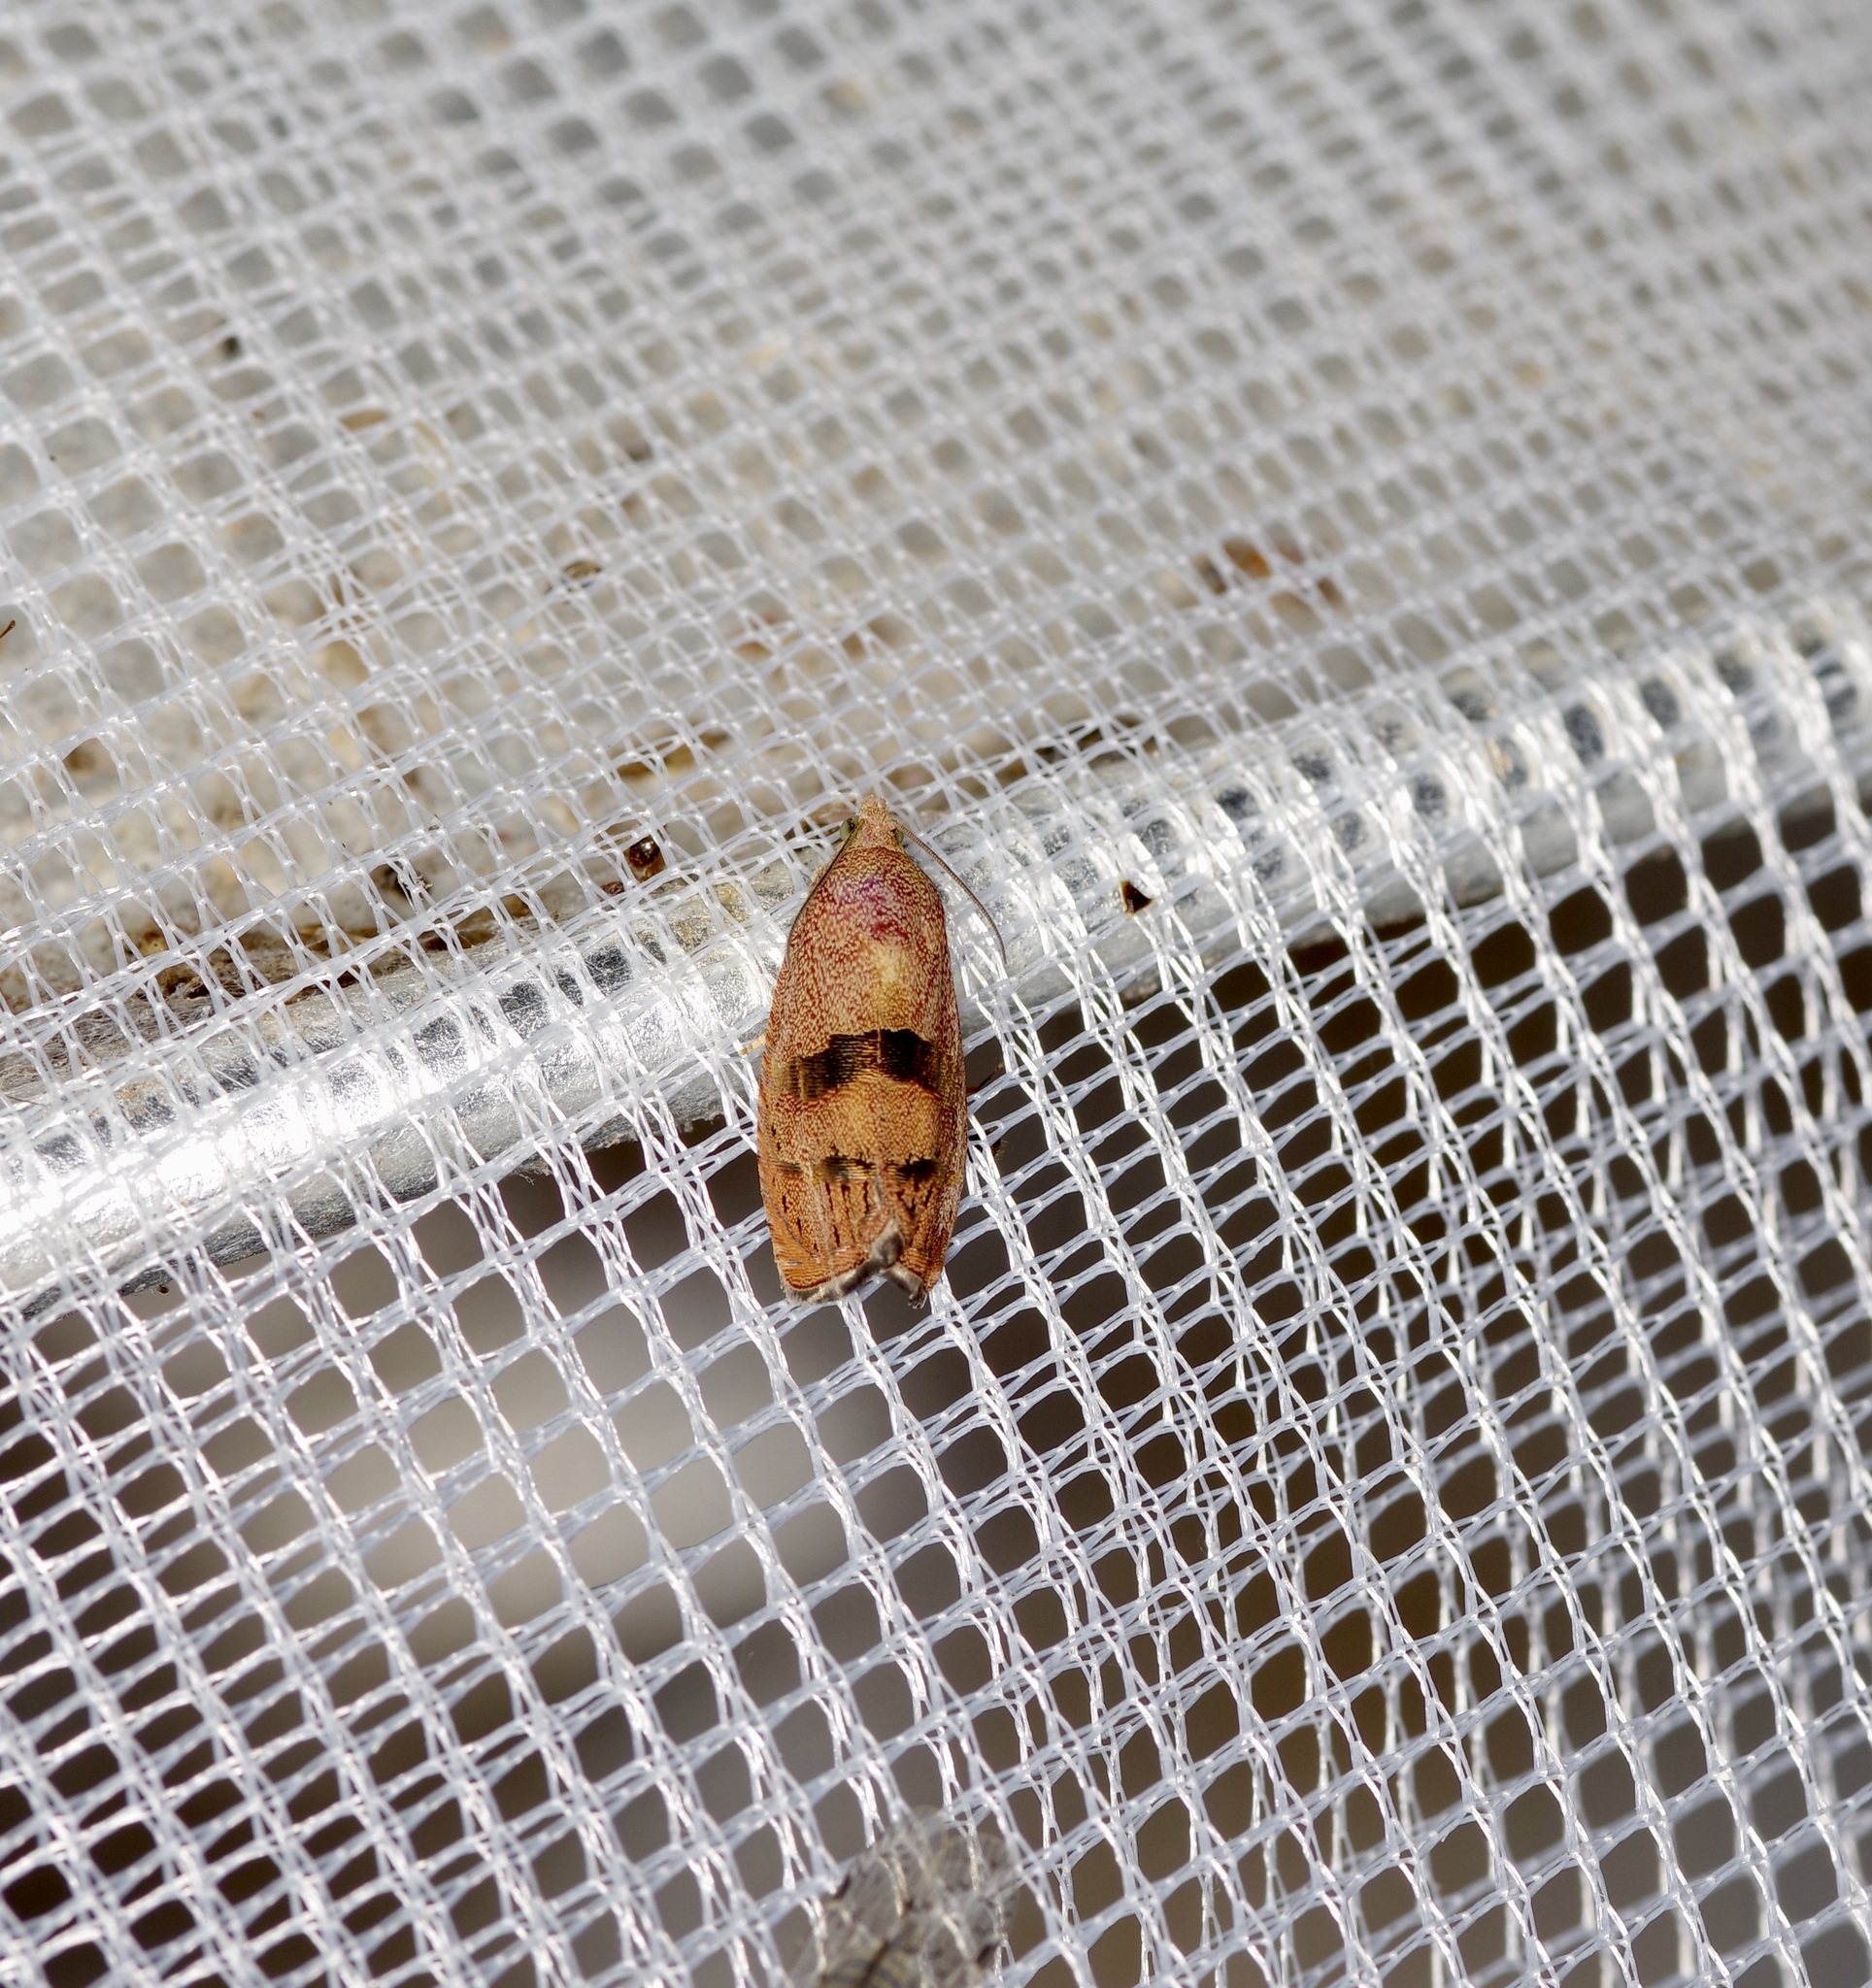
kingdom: Animalia
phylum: Arthropoda
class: Insecta
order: Lepidoptera
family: Tortricidae
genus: Cydia
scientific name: Cydia latiferreana
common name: Filbertworm moth
